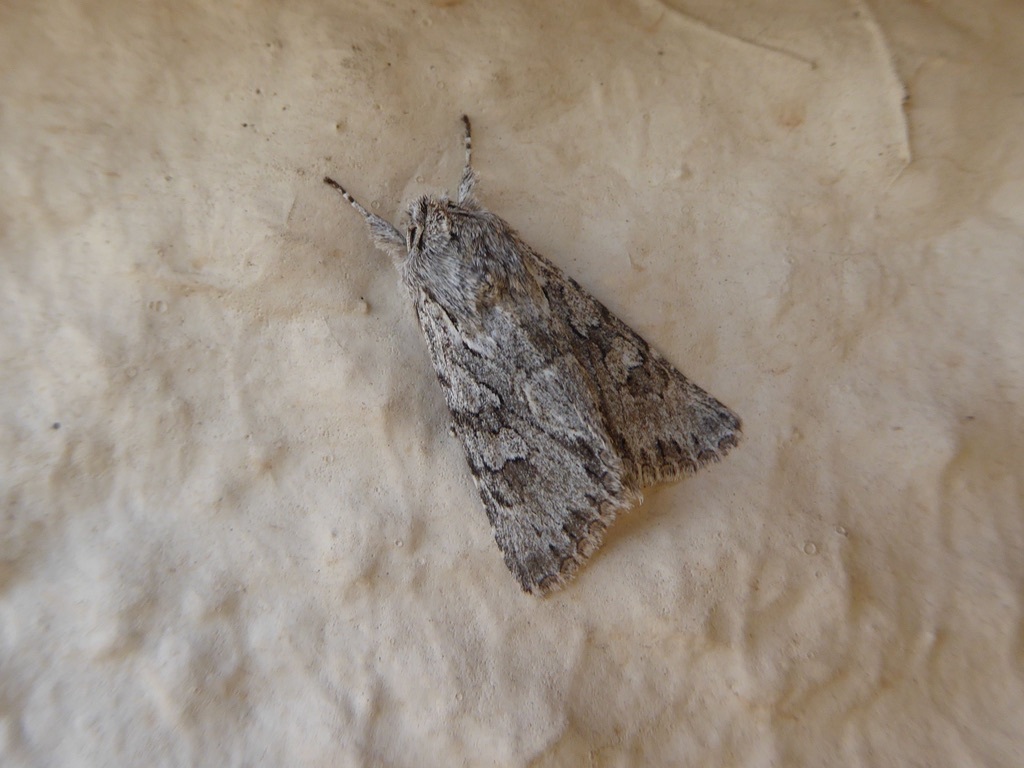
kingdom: Animalia
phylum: Arthropoda
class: Insecta
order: Lepidoptera
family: Noctuidae
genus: Xylocampa
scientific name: Xylocampa areola
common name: Early grey
